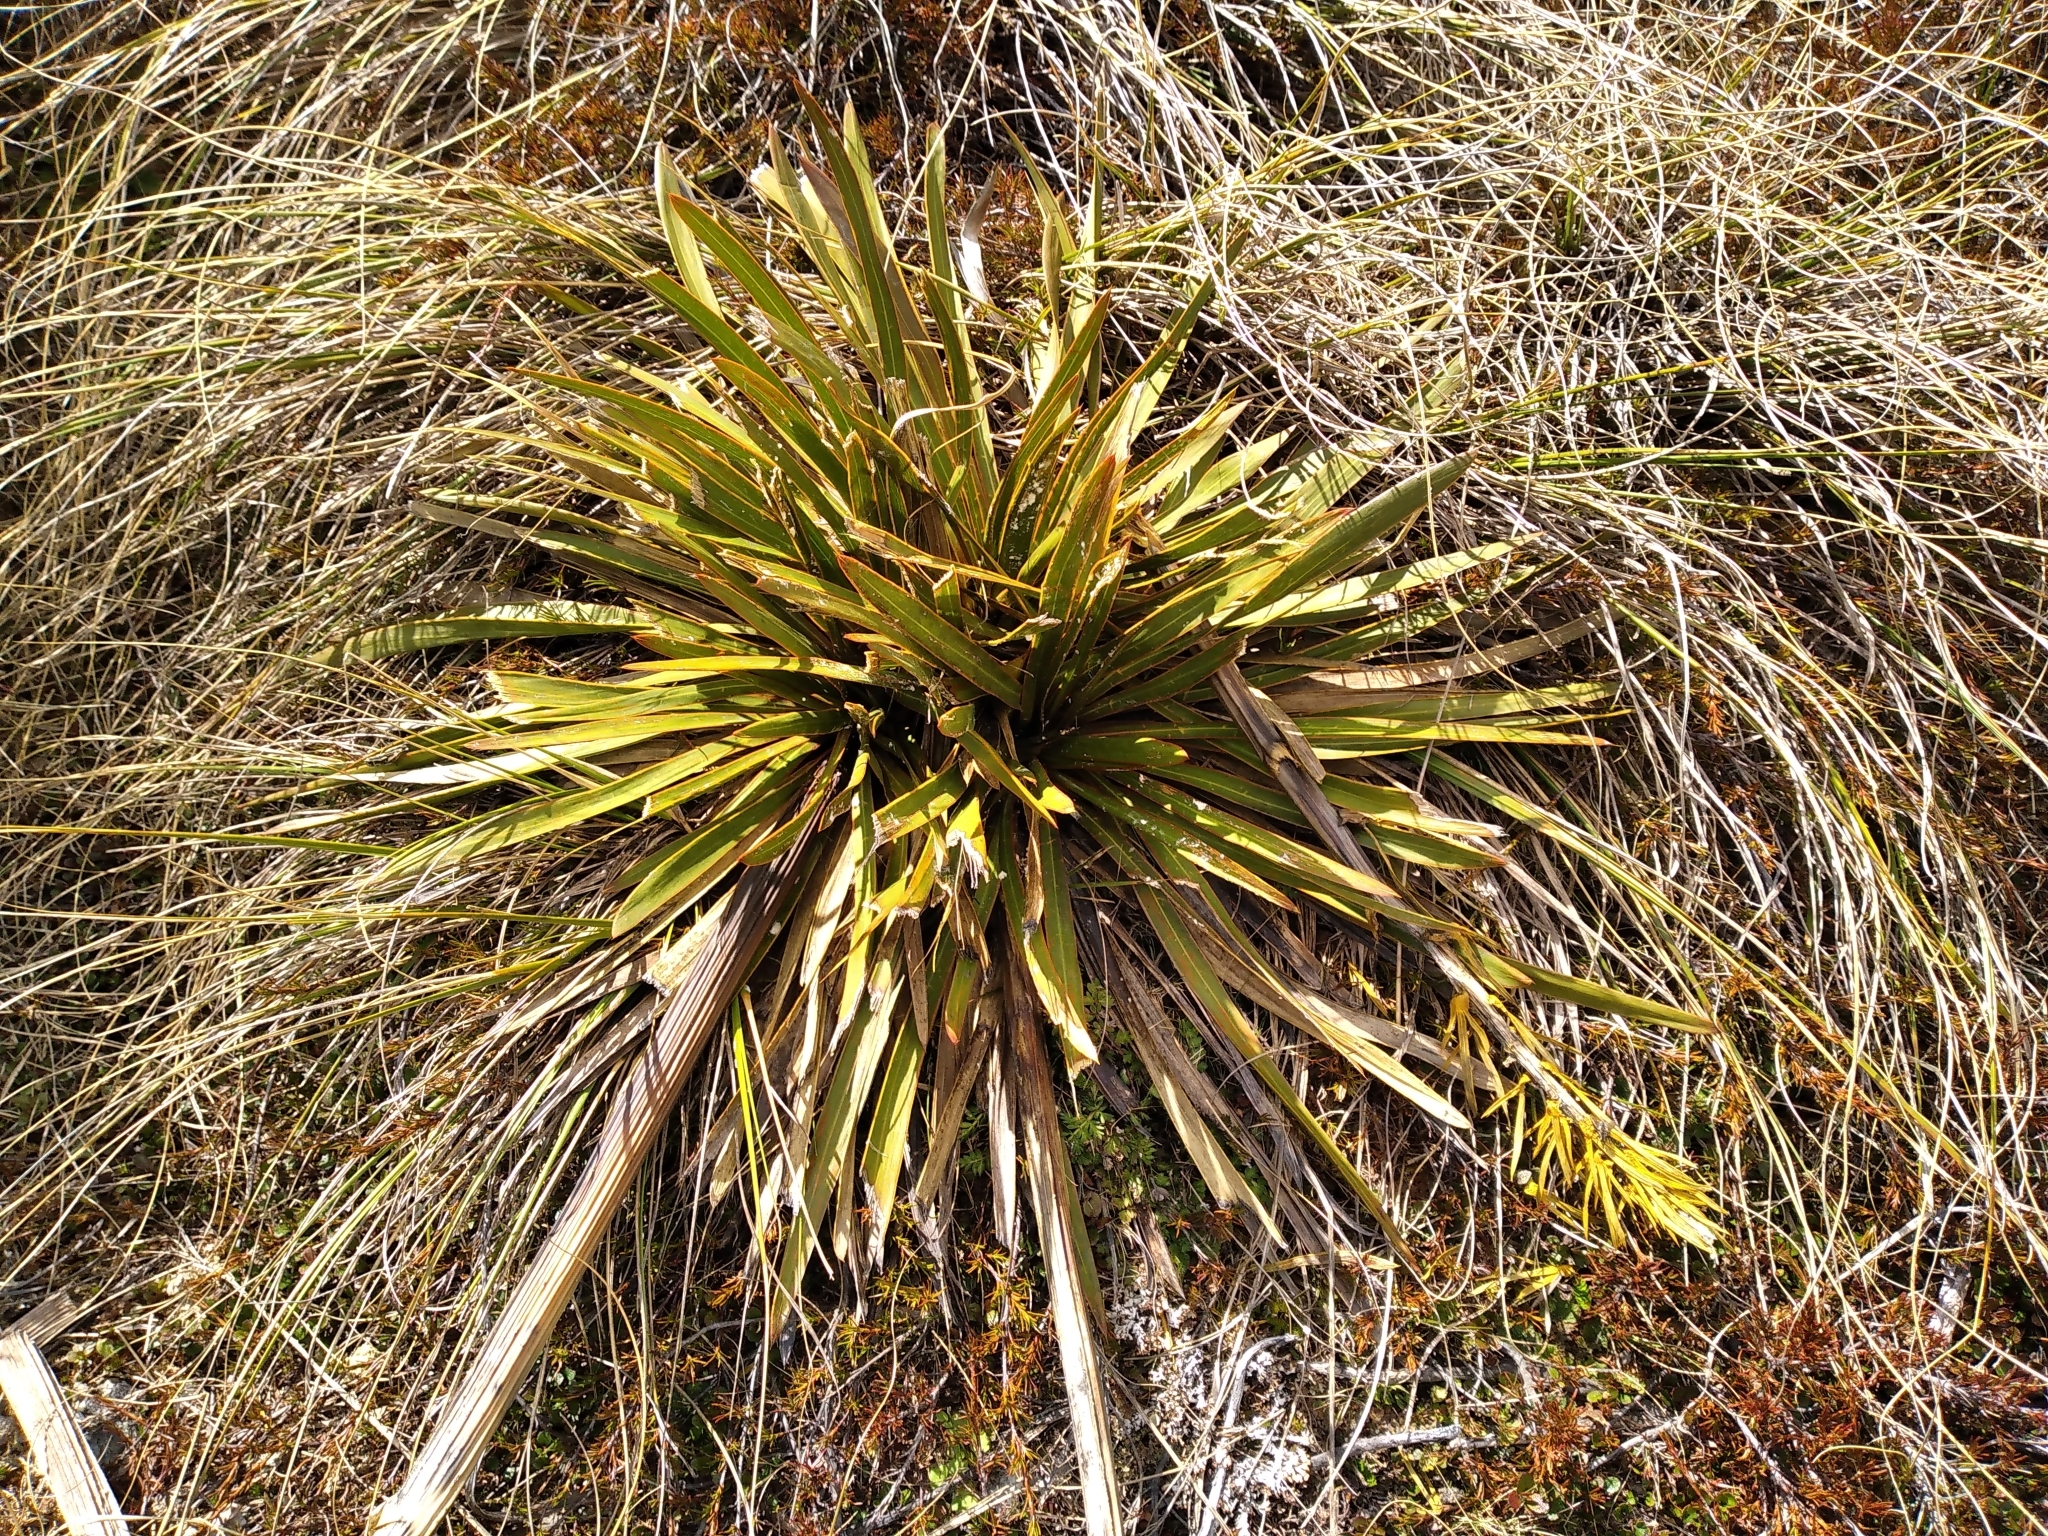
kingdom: Plantae
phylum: Tracheophyta
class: Magnoliopsida
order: Apiales
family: Apiaceae
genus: Aciphylla
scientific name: Aciphylla kirkii
